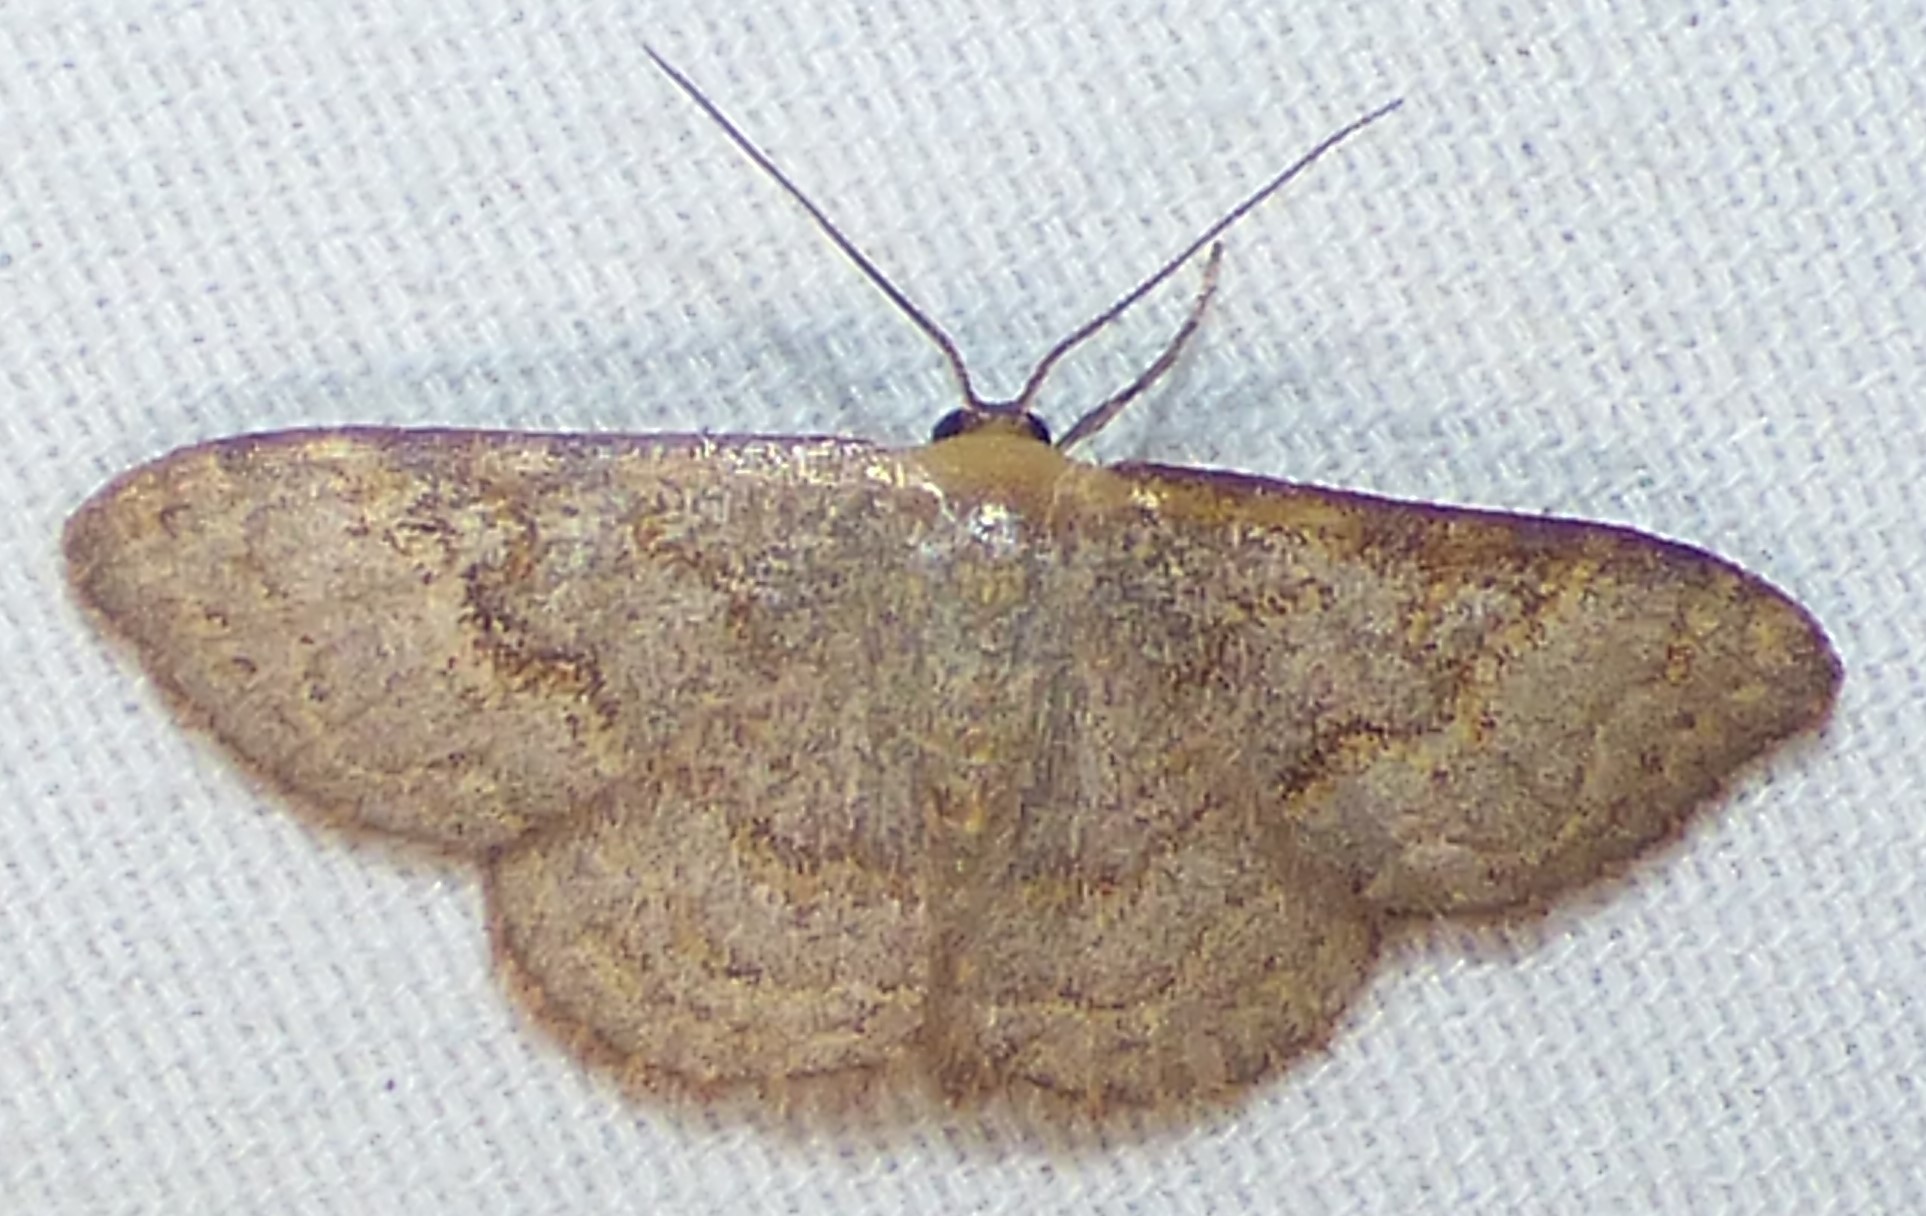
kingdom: Animalia
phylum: Arthropoda
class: Insecta
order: Lepidoptera
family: Geometridae
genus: Leptostales
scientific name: Leptostales pannaria
